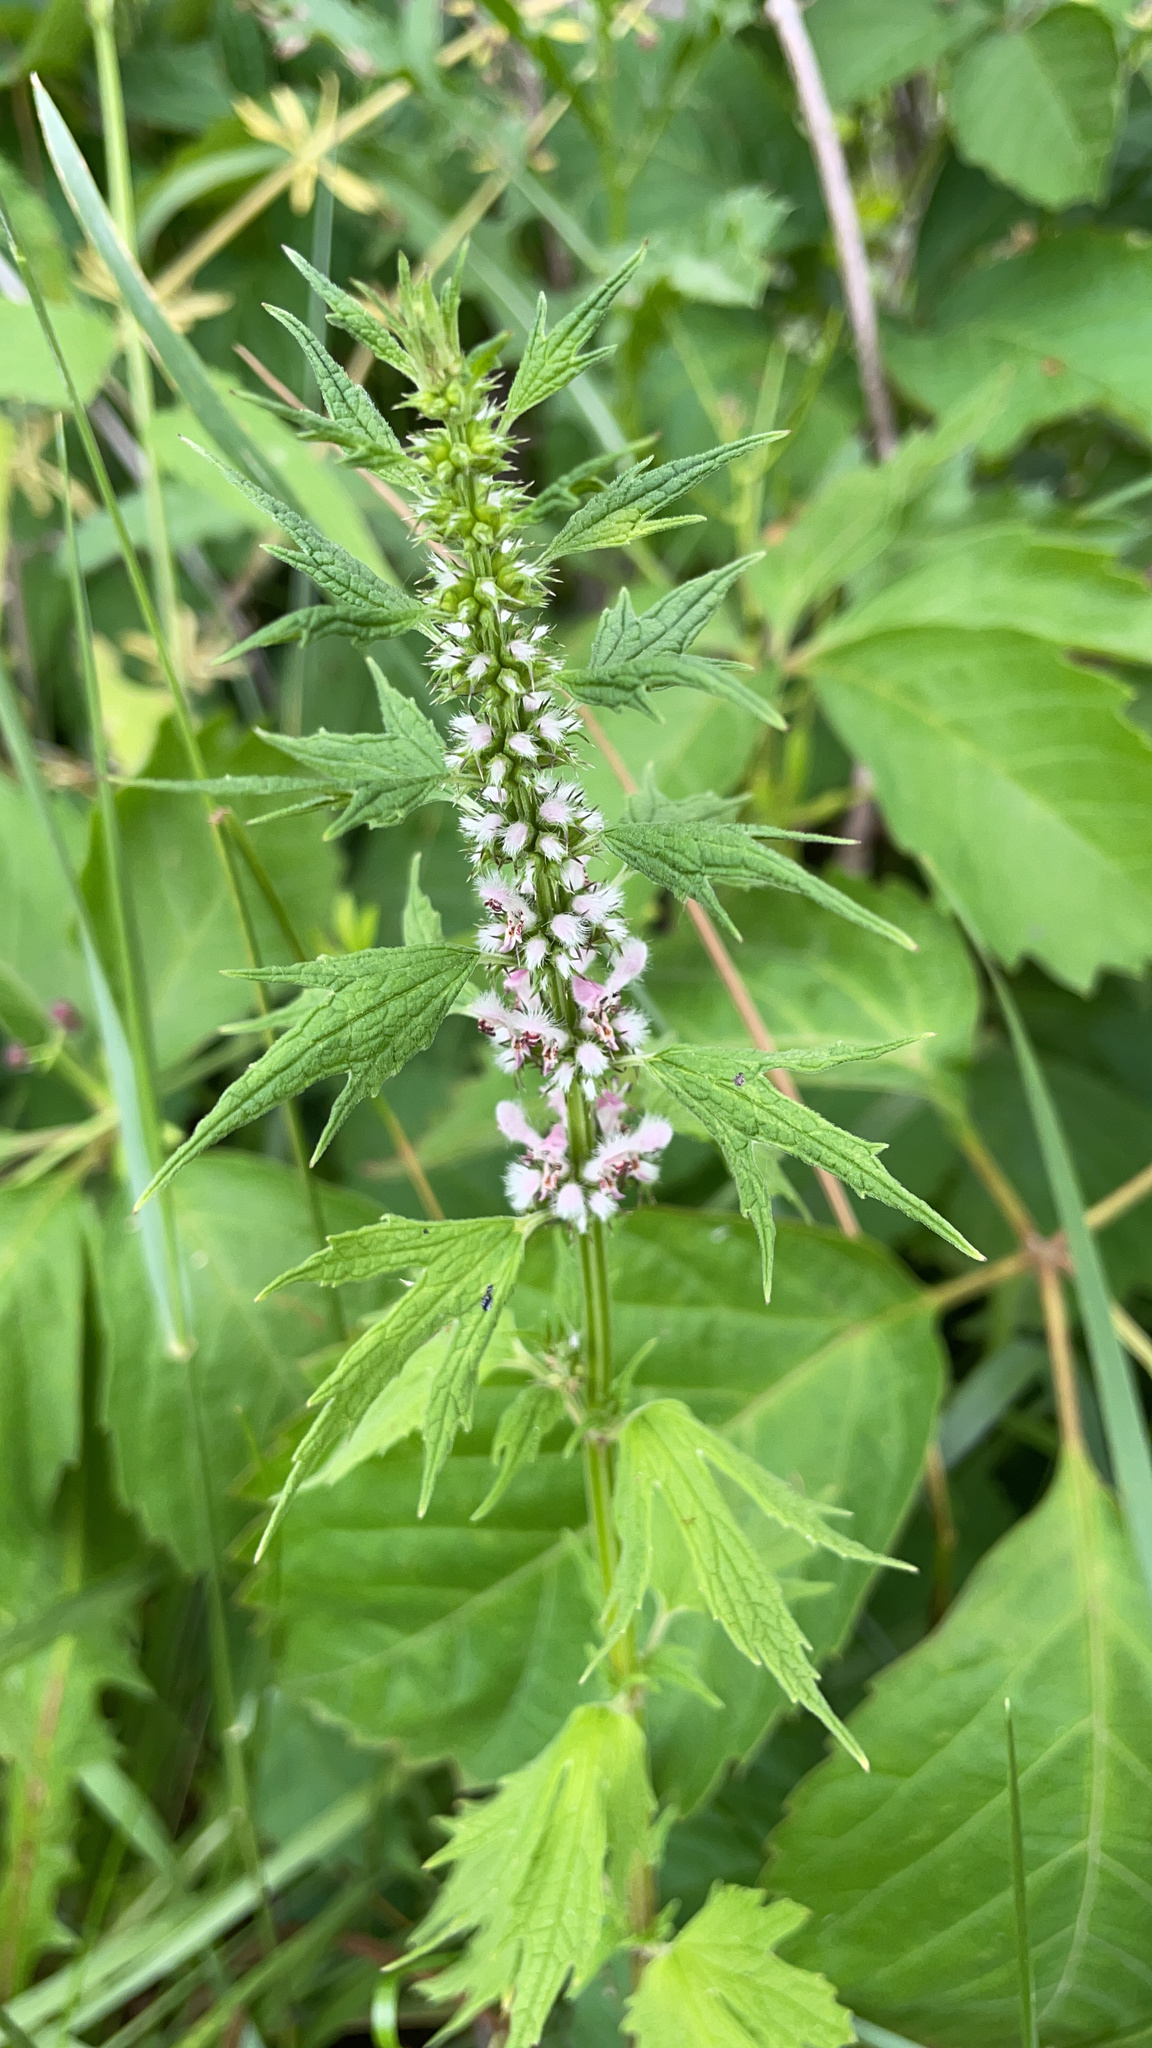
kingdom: Plantae
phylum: Tracheophyta
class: Magnoliopsida
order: Lamiales
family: Lamiaceae
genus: Leonurus
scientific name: Leonurus cardiaca
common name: Motherwort
